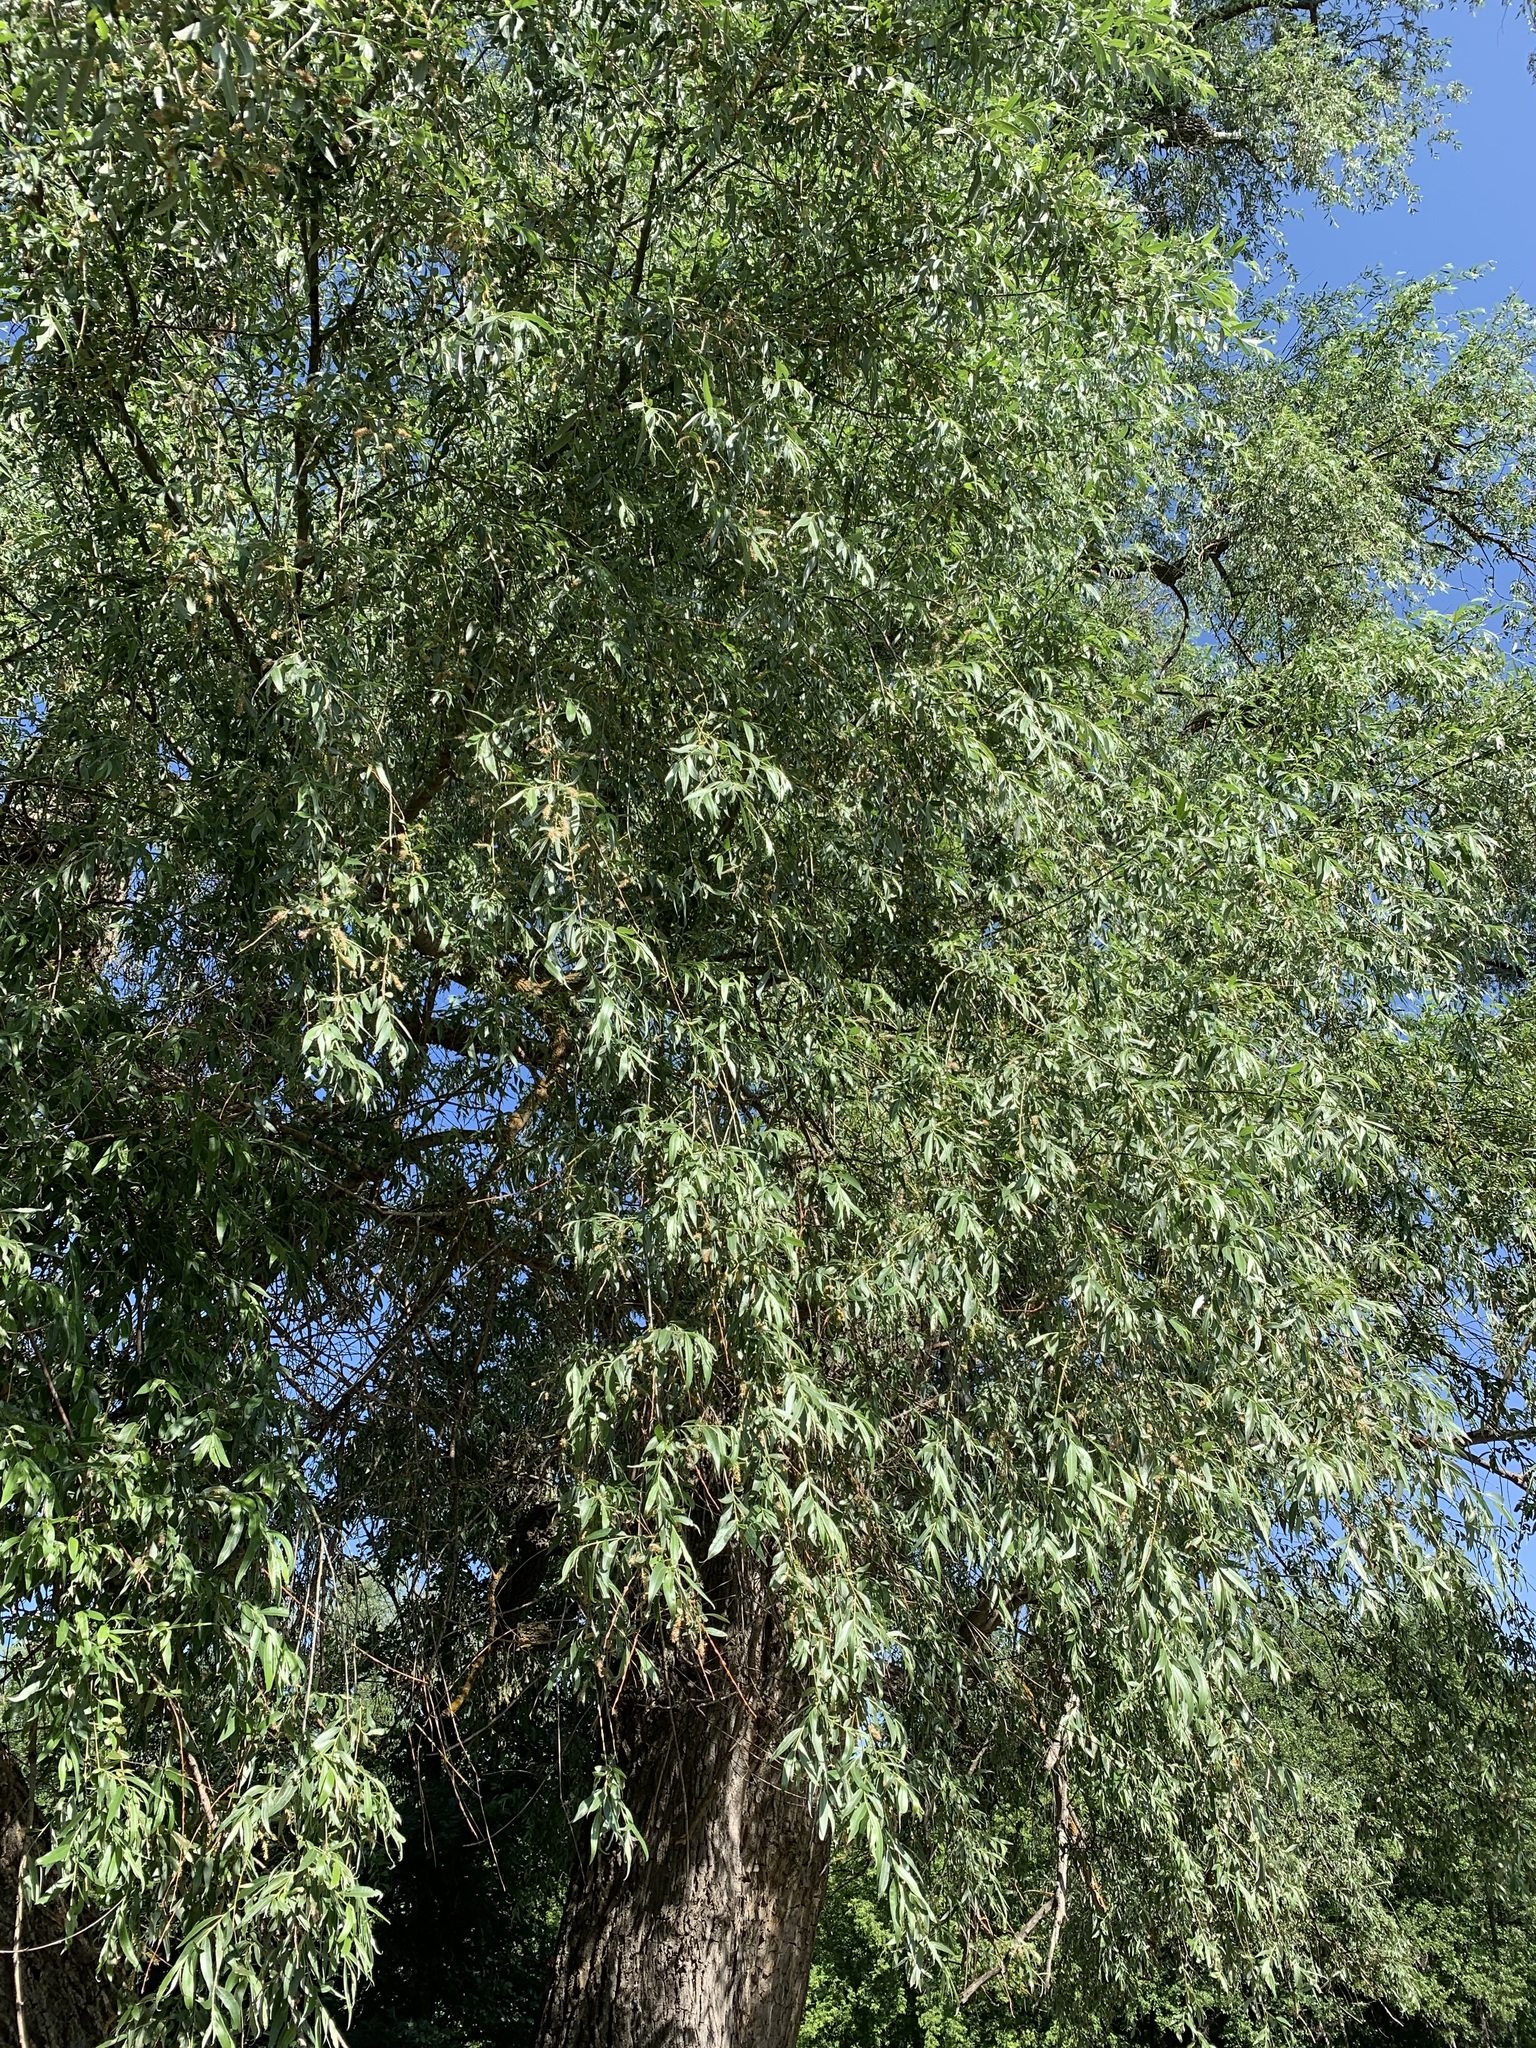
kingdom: Plantae
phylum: Tracheophyta
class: Magnoliopsida
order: Malpighiales
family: Salicaceae
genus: Salix
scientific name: Salix alba
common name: White willow
